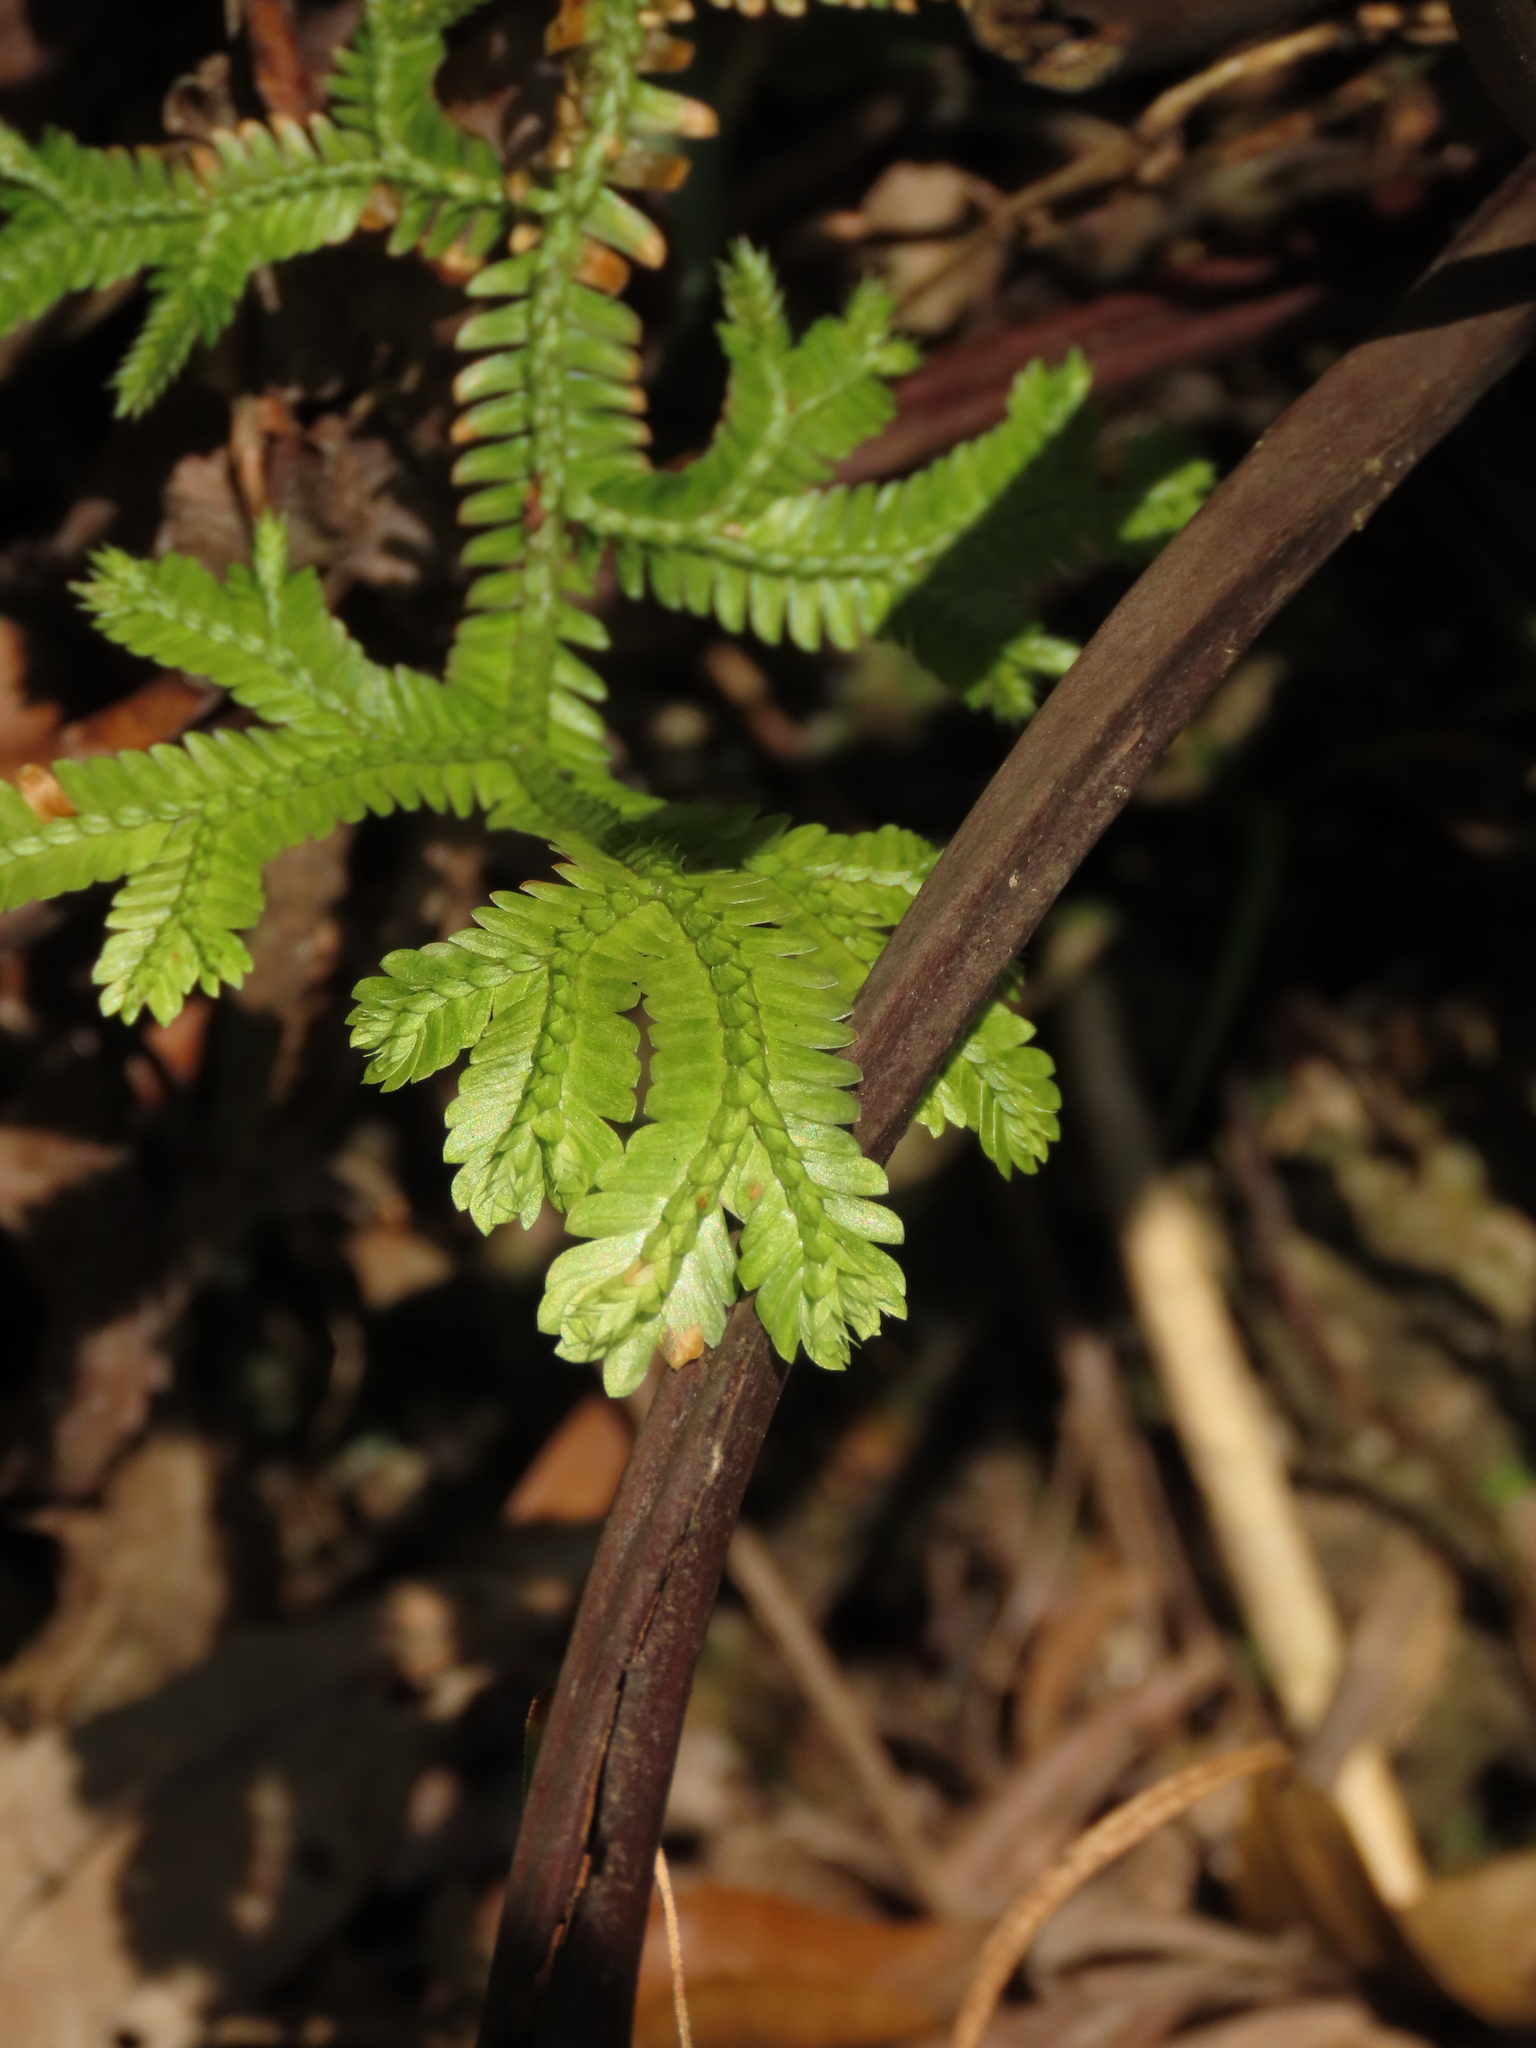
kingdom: Plantae
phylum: Tracheophyta
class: Lycopodiopsida
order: Selaginellales
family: Selaginellaceae
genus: Selaginella
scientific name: Selaginella doederleinii
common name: Greater selaginella
